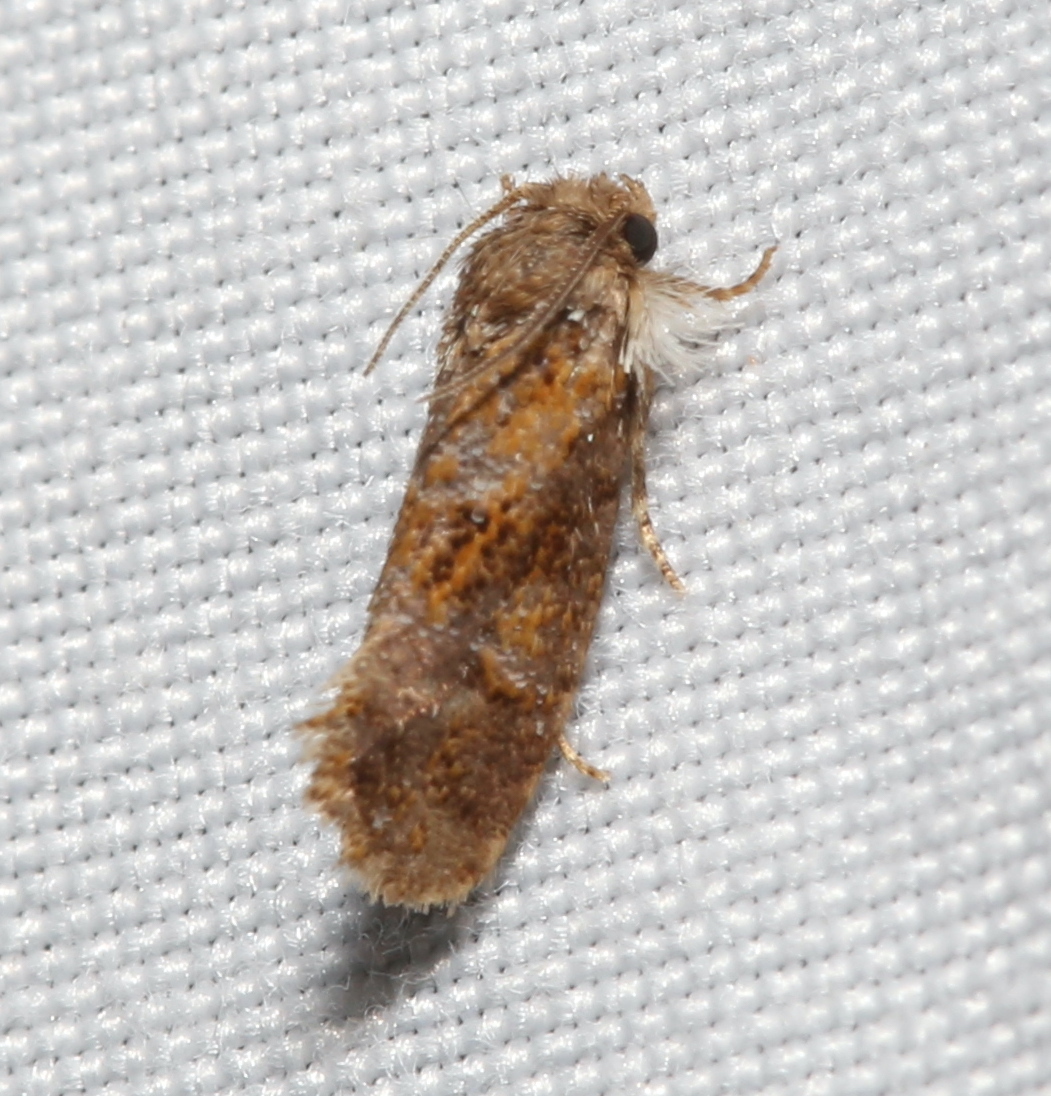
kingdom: Animalia
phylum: Arthropoda
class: Insecta
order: Lepidoptera
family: Tineidae
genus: Acrolophus
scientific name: Acrolophus panamae
